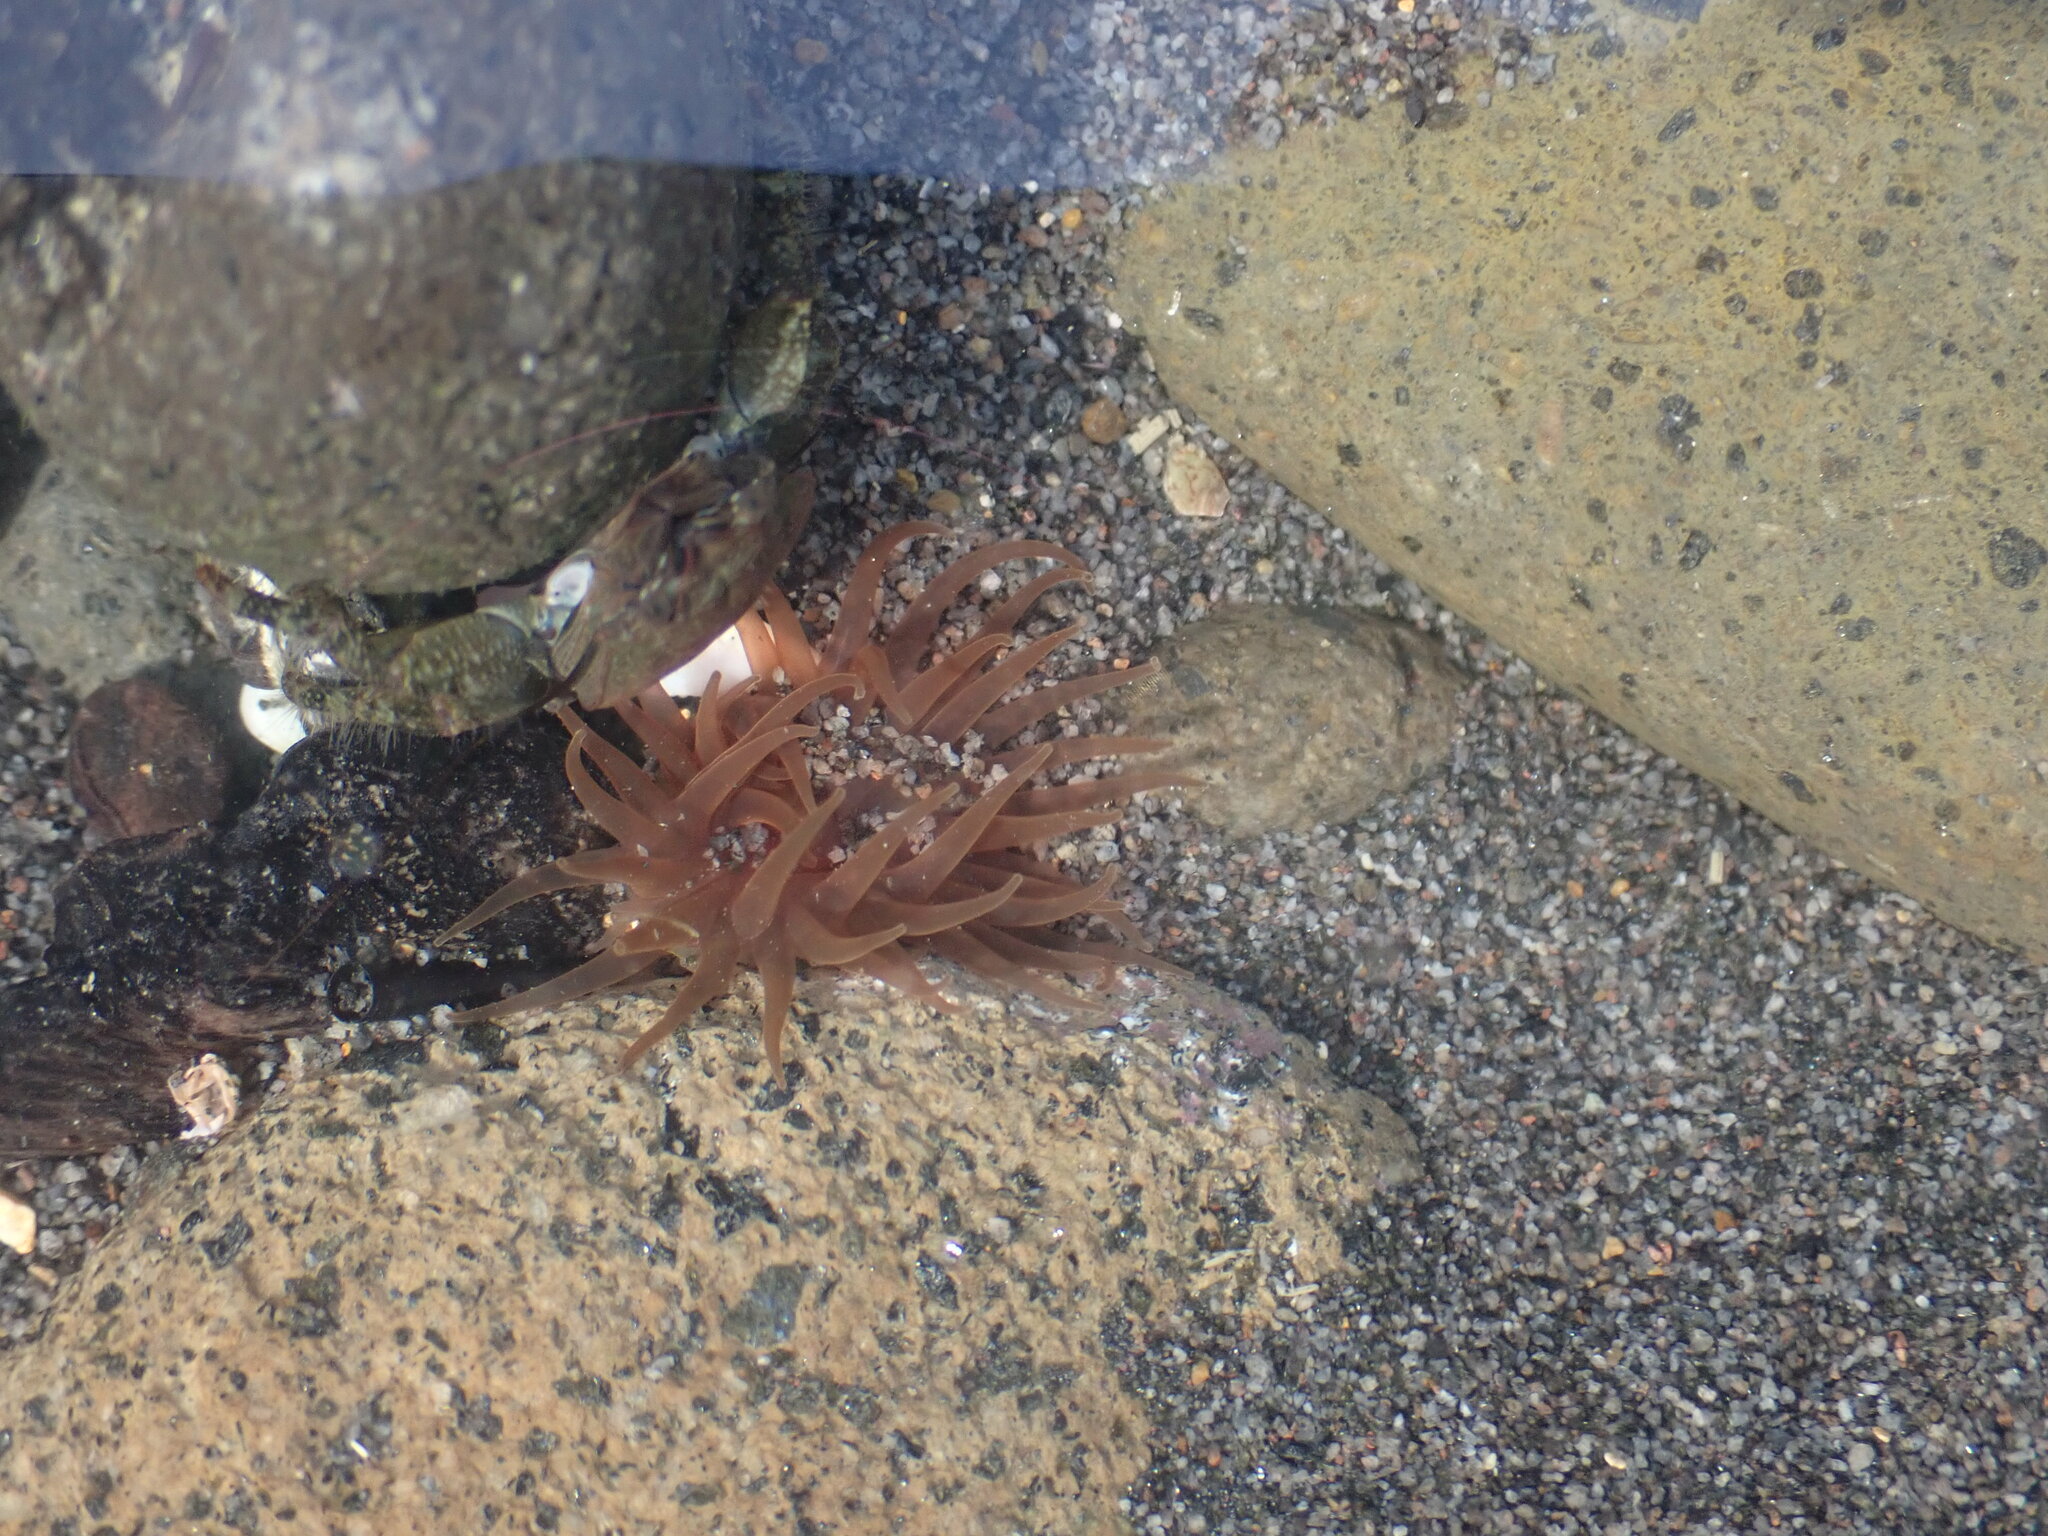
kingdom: Animalia
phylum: Cnidaria
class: Anthozoa
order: Actiniaria
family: Actiniidae
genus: Isactinia
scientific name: Isactinia olivacea
